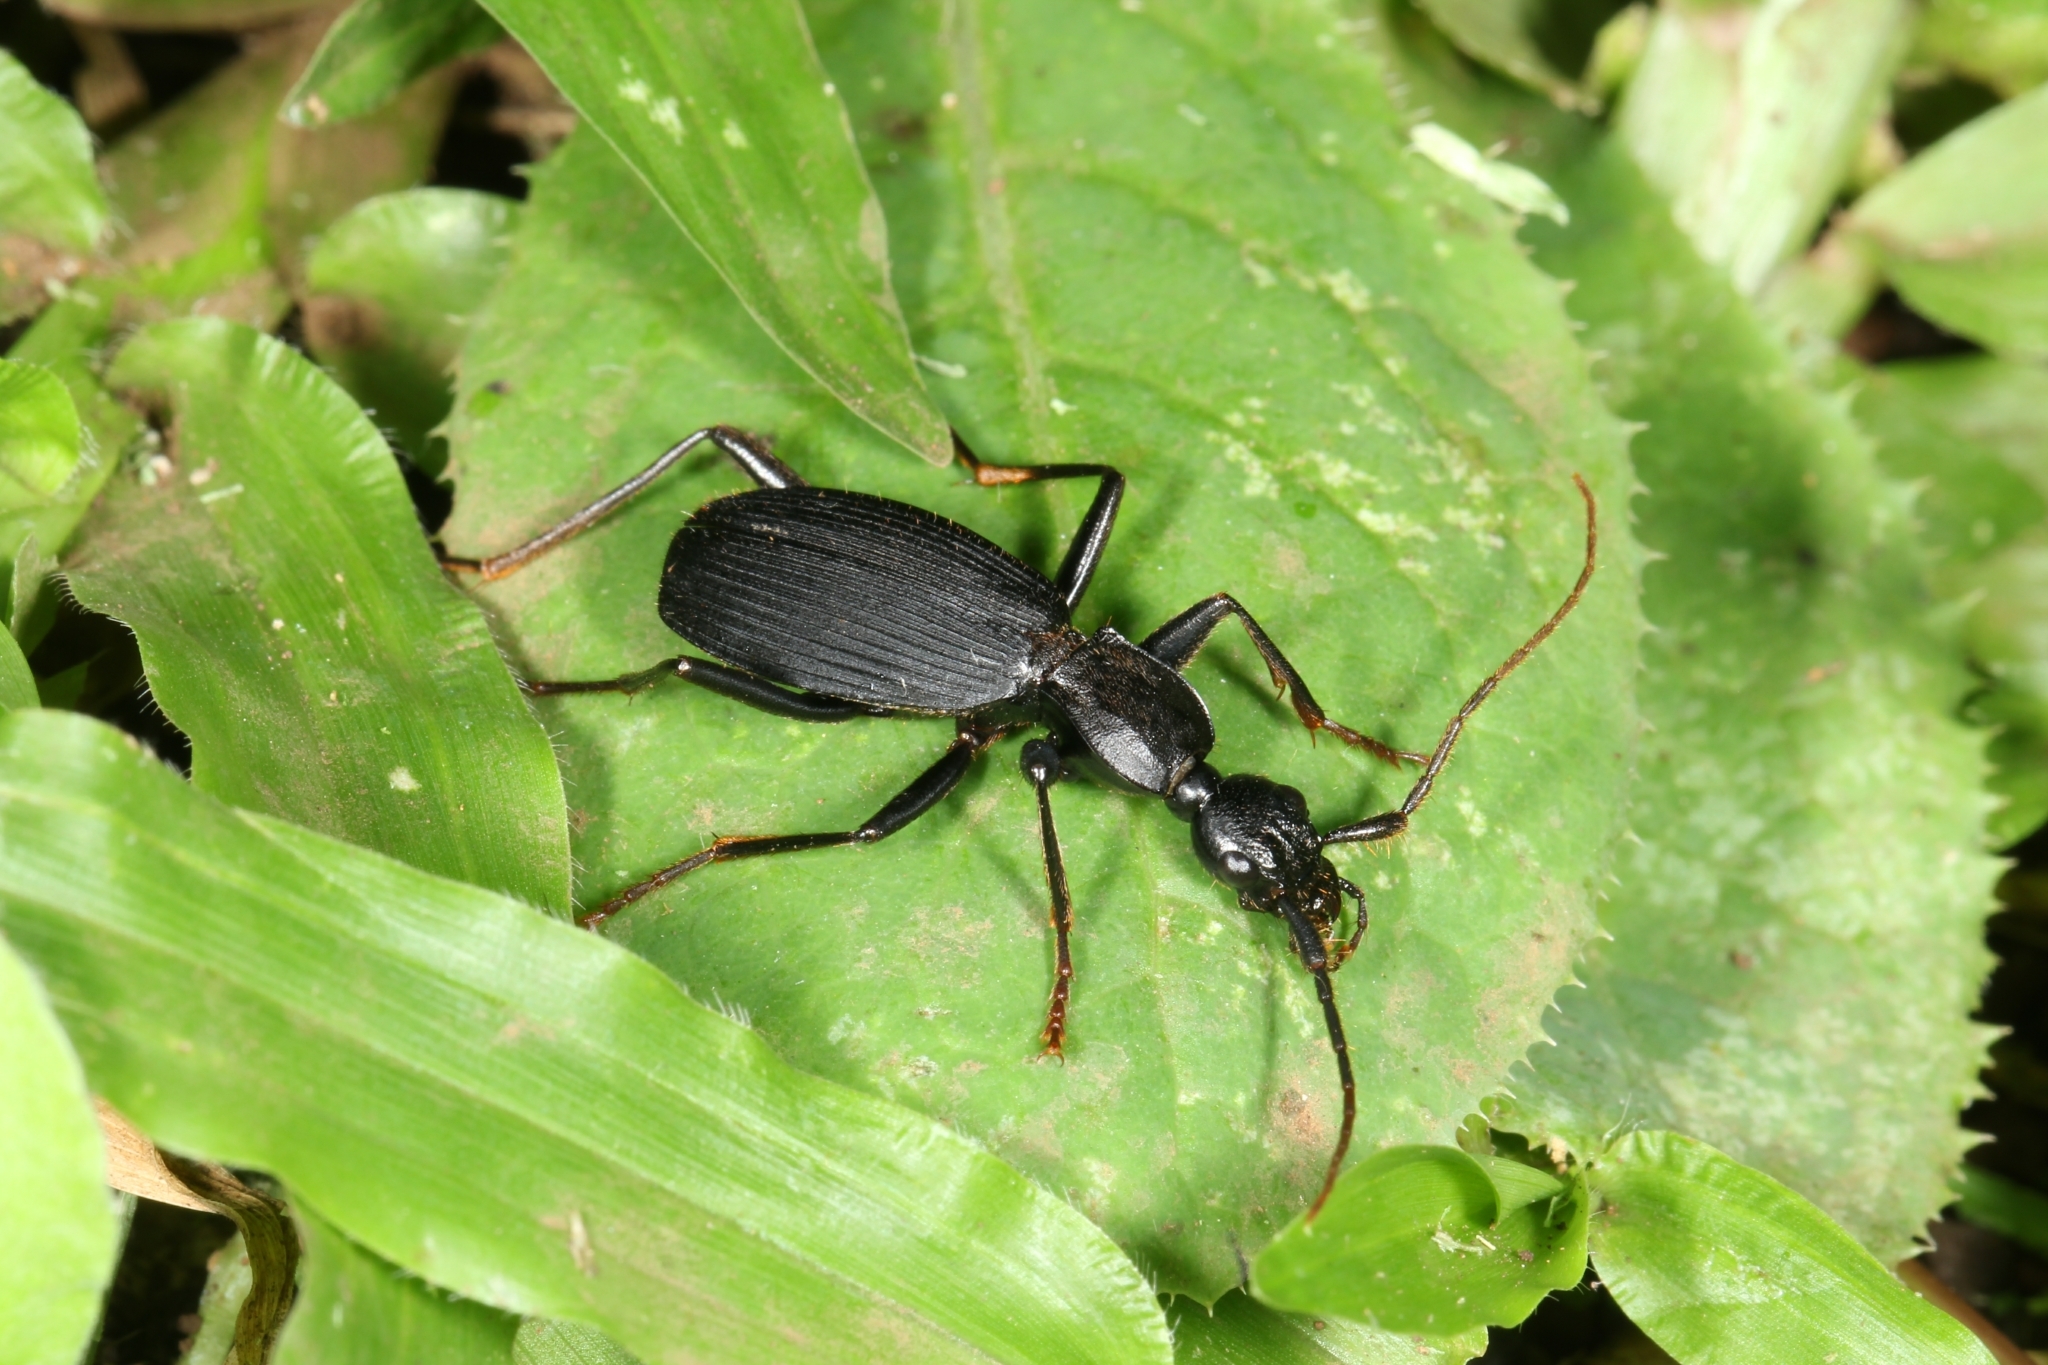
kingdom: Animalia
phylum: Arthropoda
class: Insecta
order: Coleoptera
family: Carabidae
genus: Galerita
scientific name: Galerita championi
